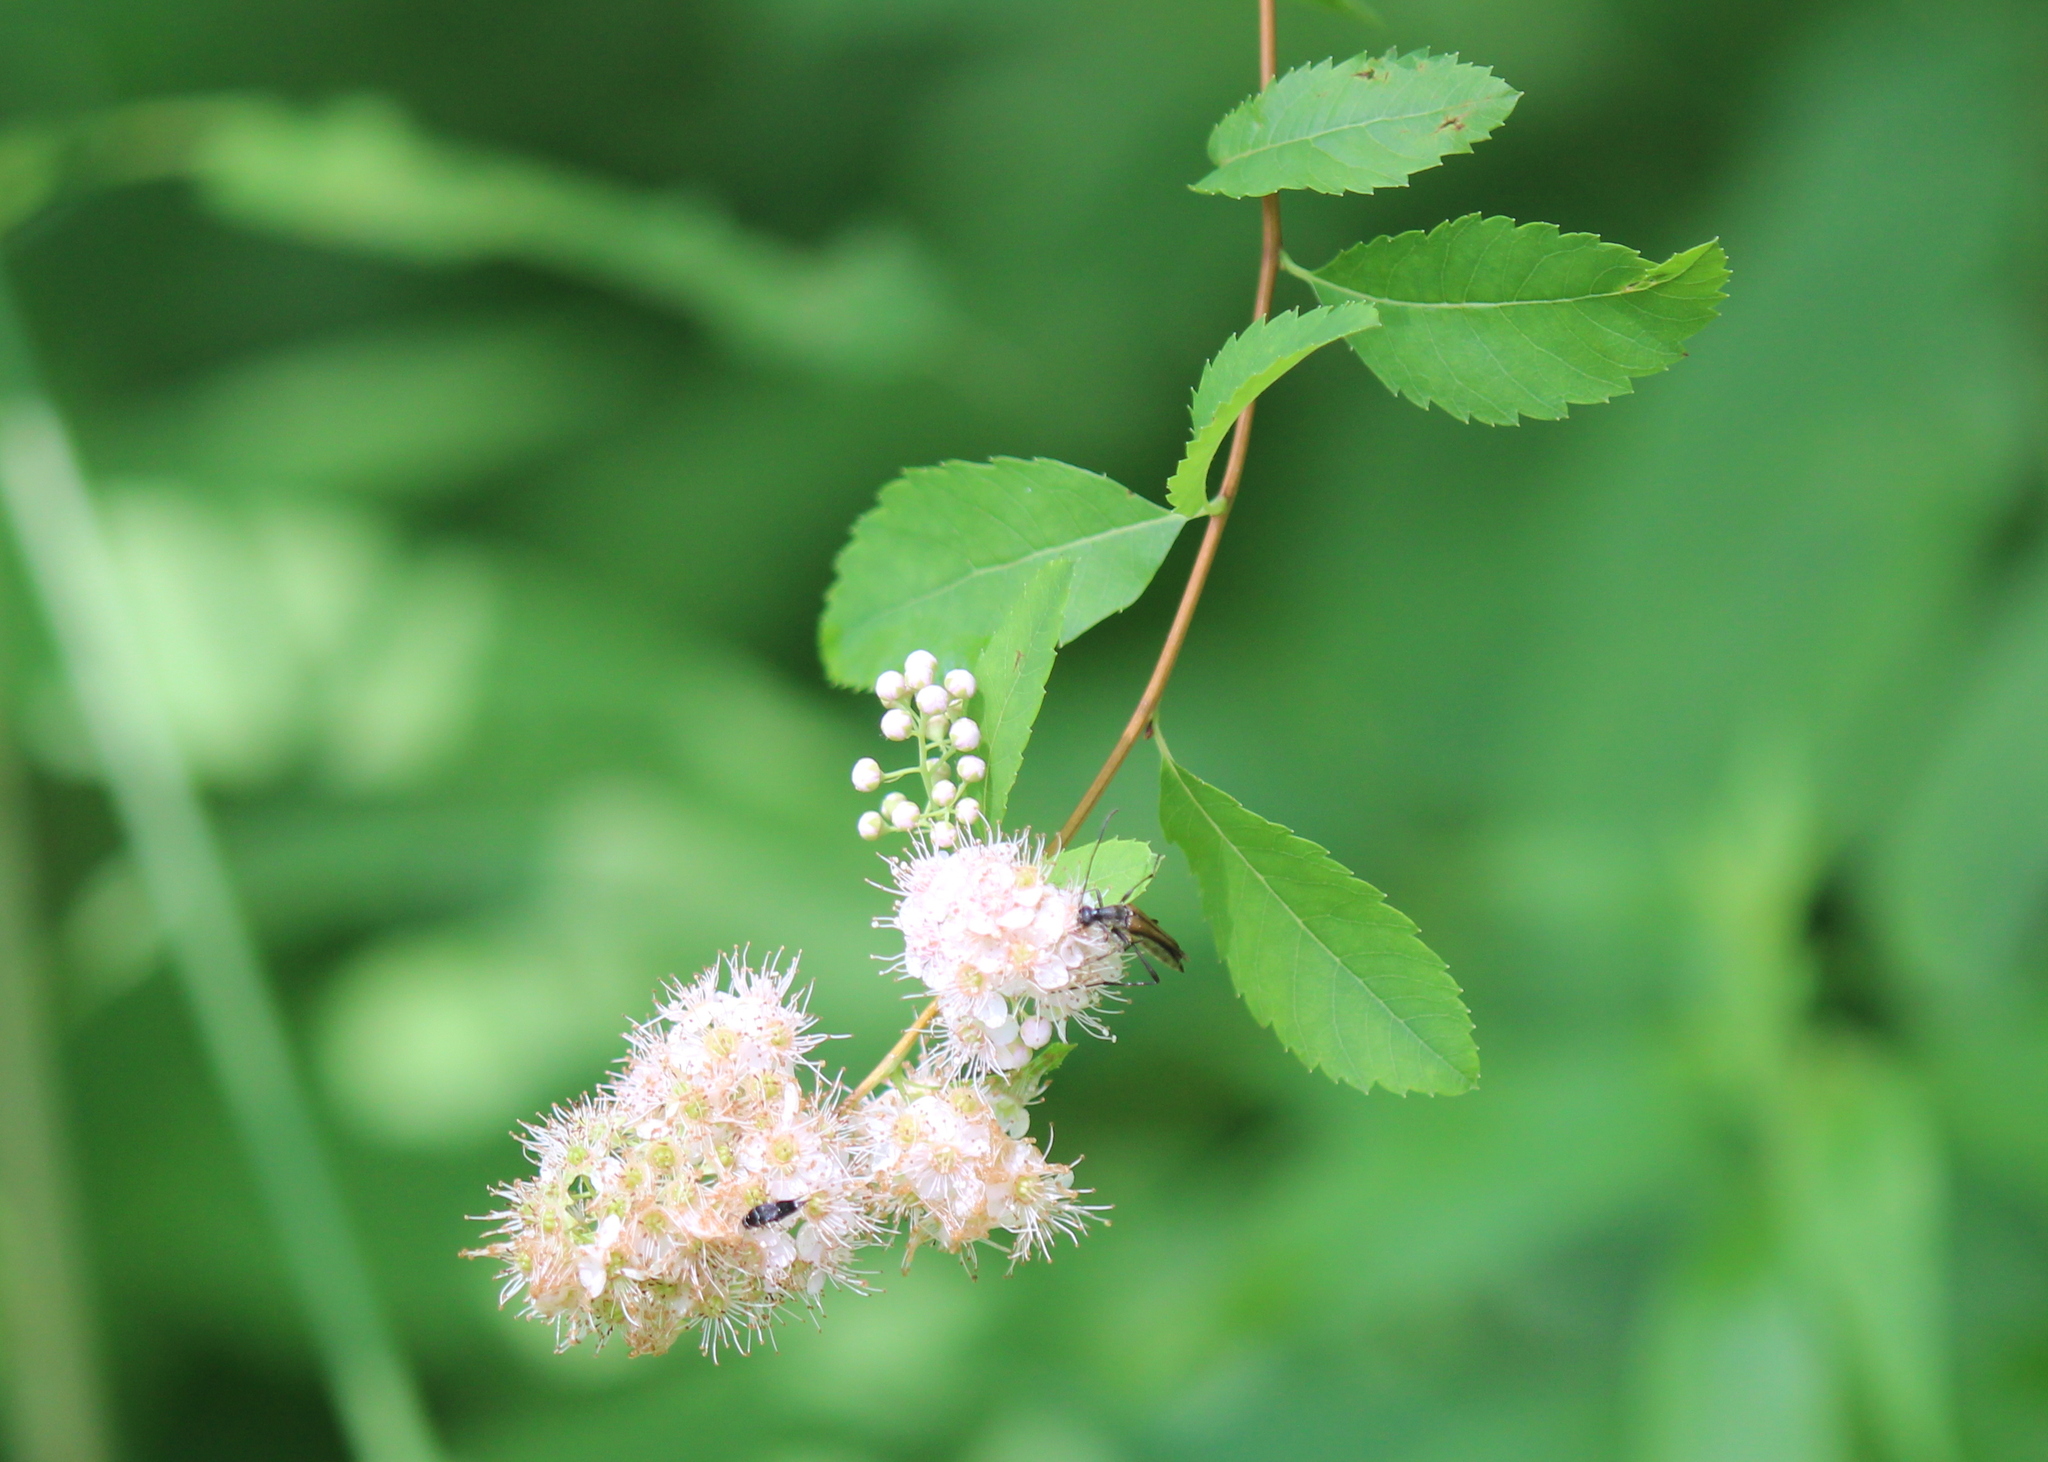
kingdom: Plantae
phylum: Tracheophyta
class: Magnoliopsida
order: Rosales
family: Rosaceae
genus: Spiraea
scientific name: Spiraea alba
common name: Pale bridewort
